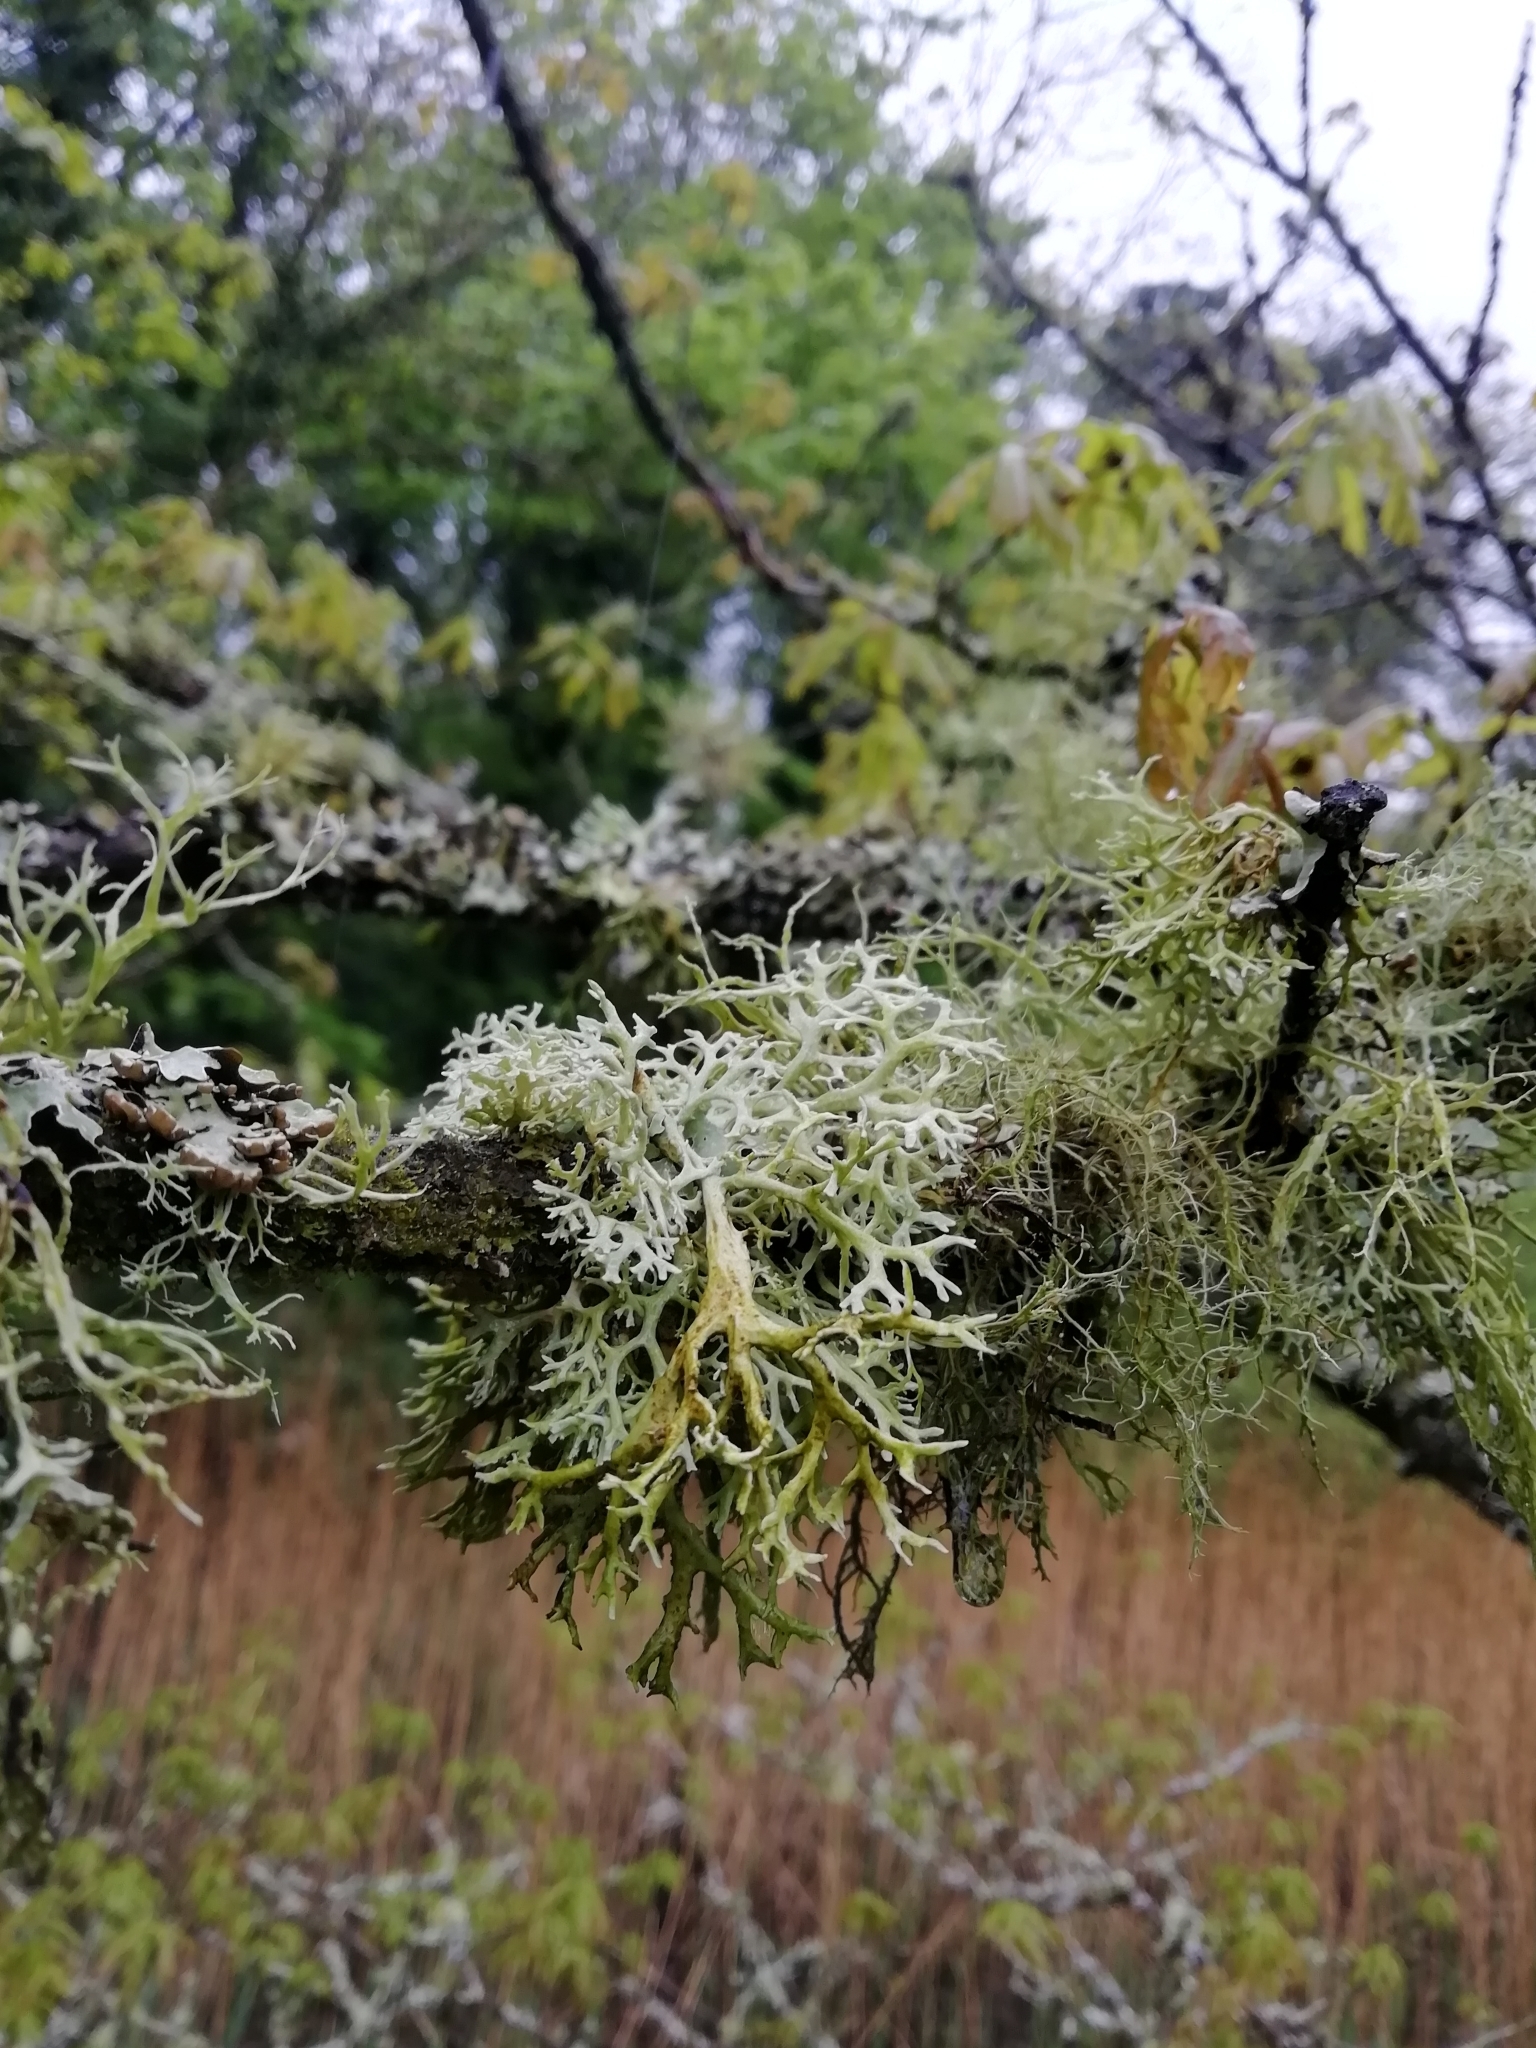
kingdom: Fungi
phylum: Ascomycota
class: Lecanoromycetes
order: Lecanorales
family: Parmeliaceae
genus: Evernia
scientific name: Evernia prunastri
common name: Oak moss
